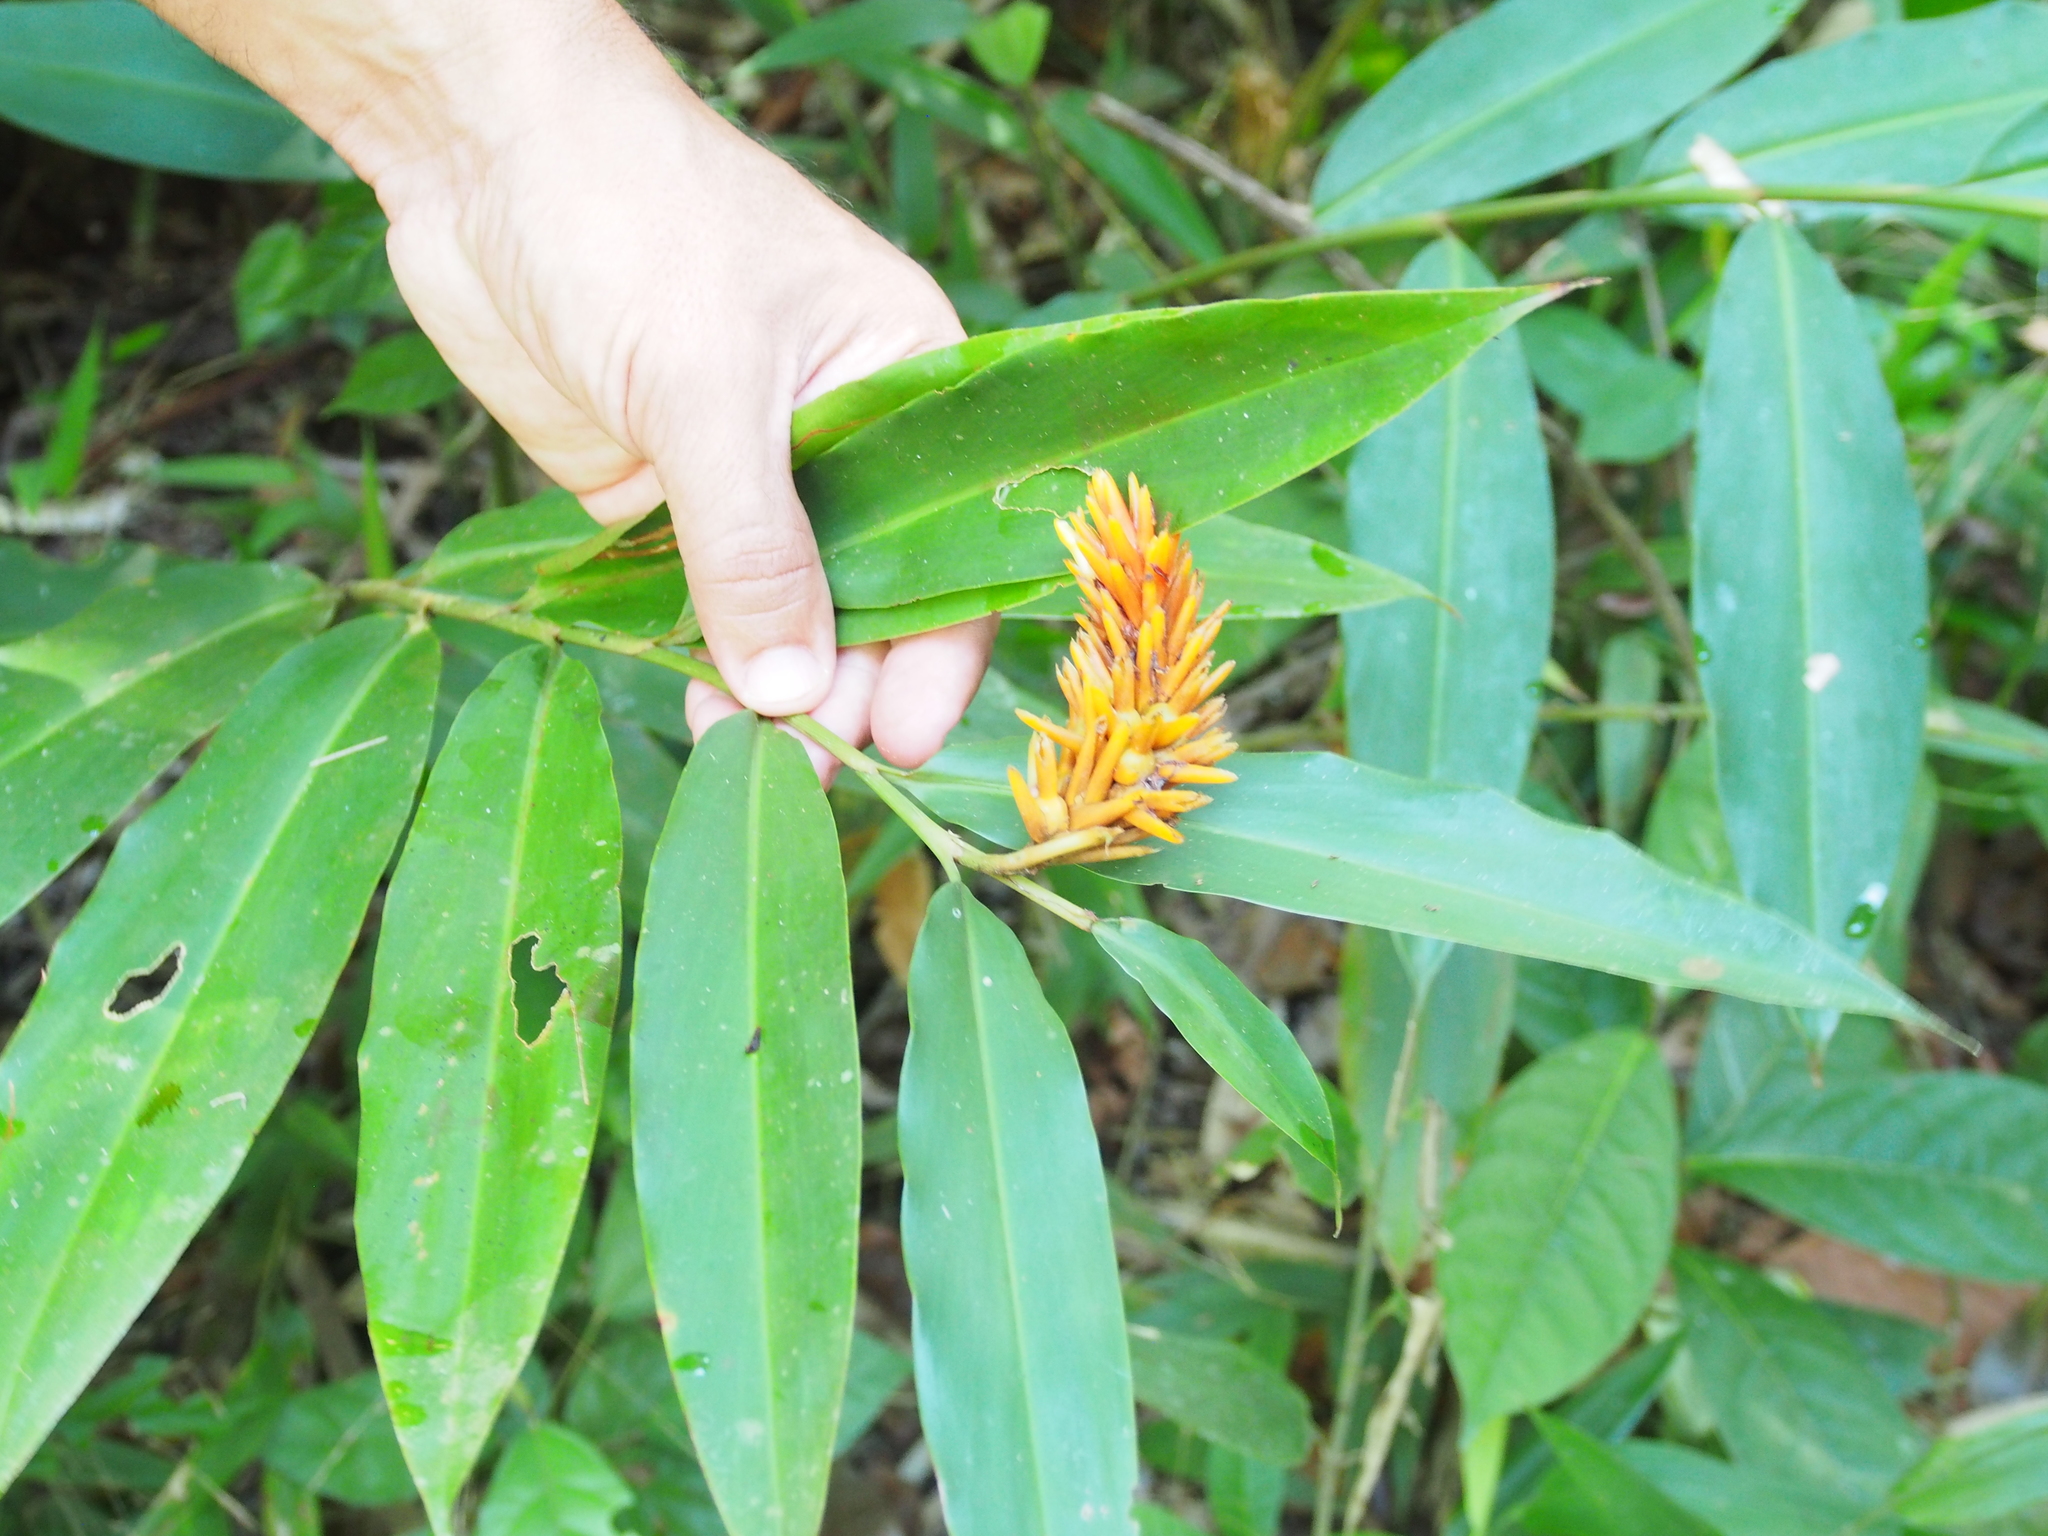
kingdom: Plantae
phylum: Tracheophyta
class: Liliopsida
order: Zingiberales
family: Zingiberaceae
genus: Renealmia
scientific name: Renealmia cernua
